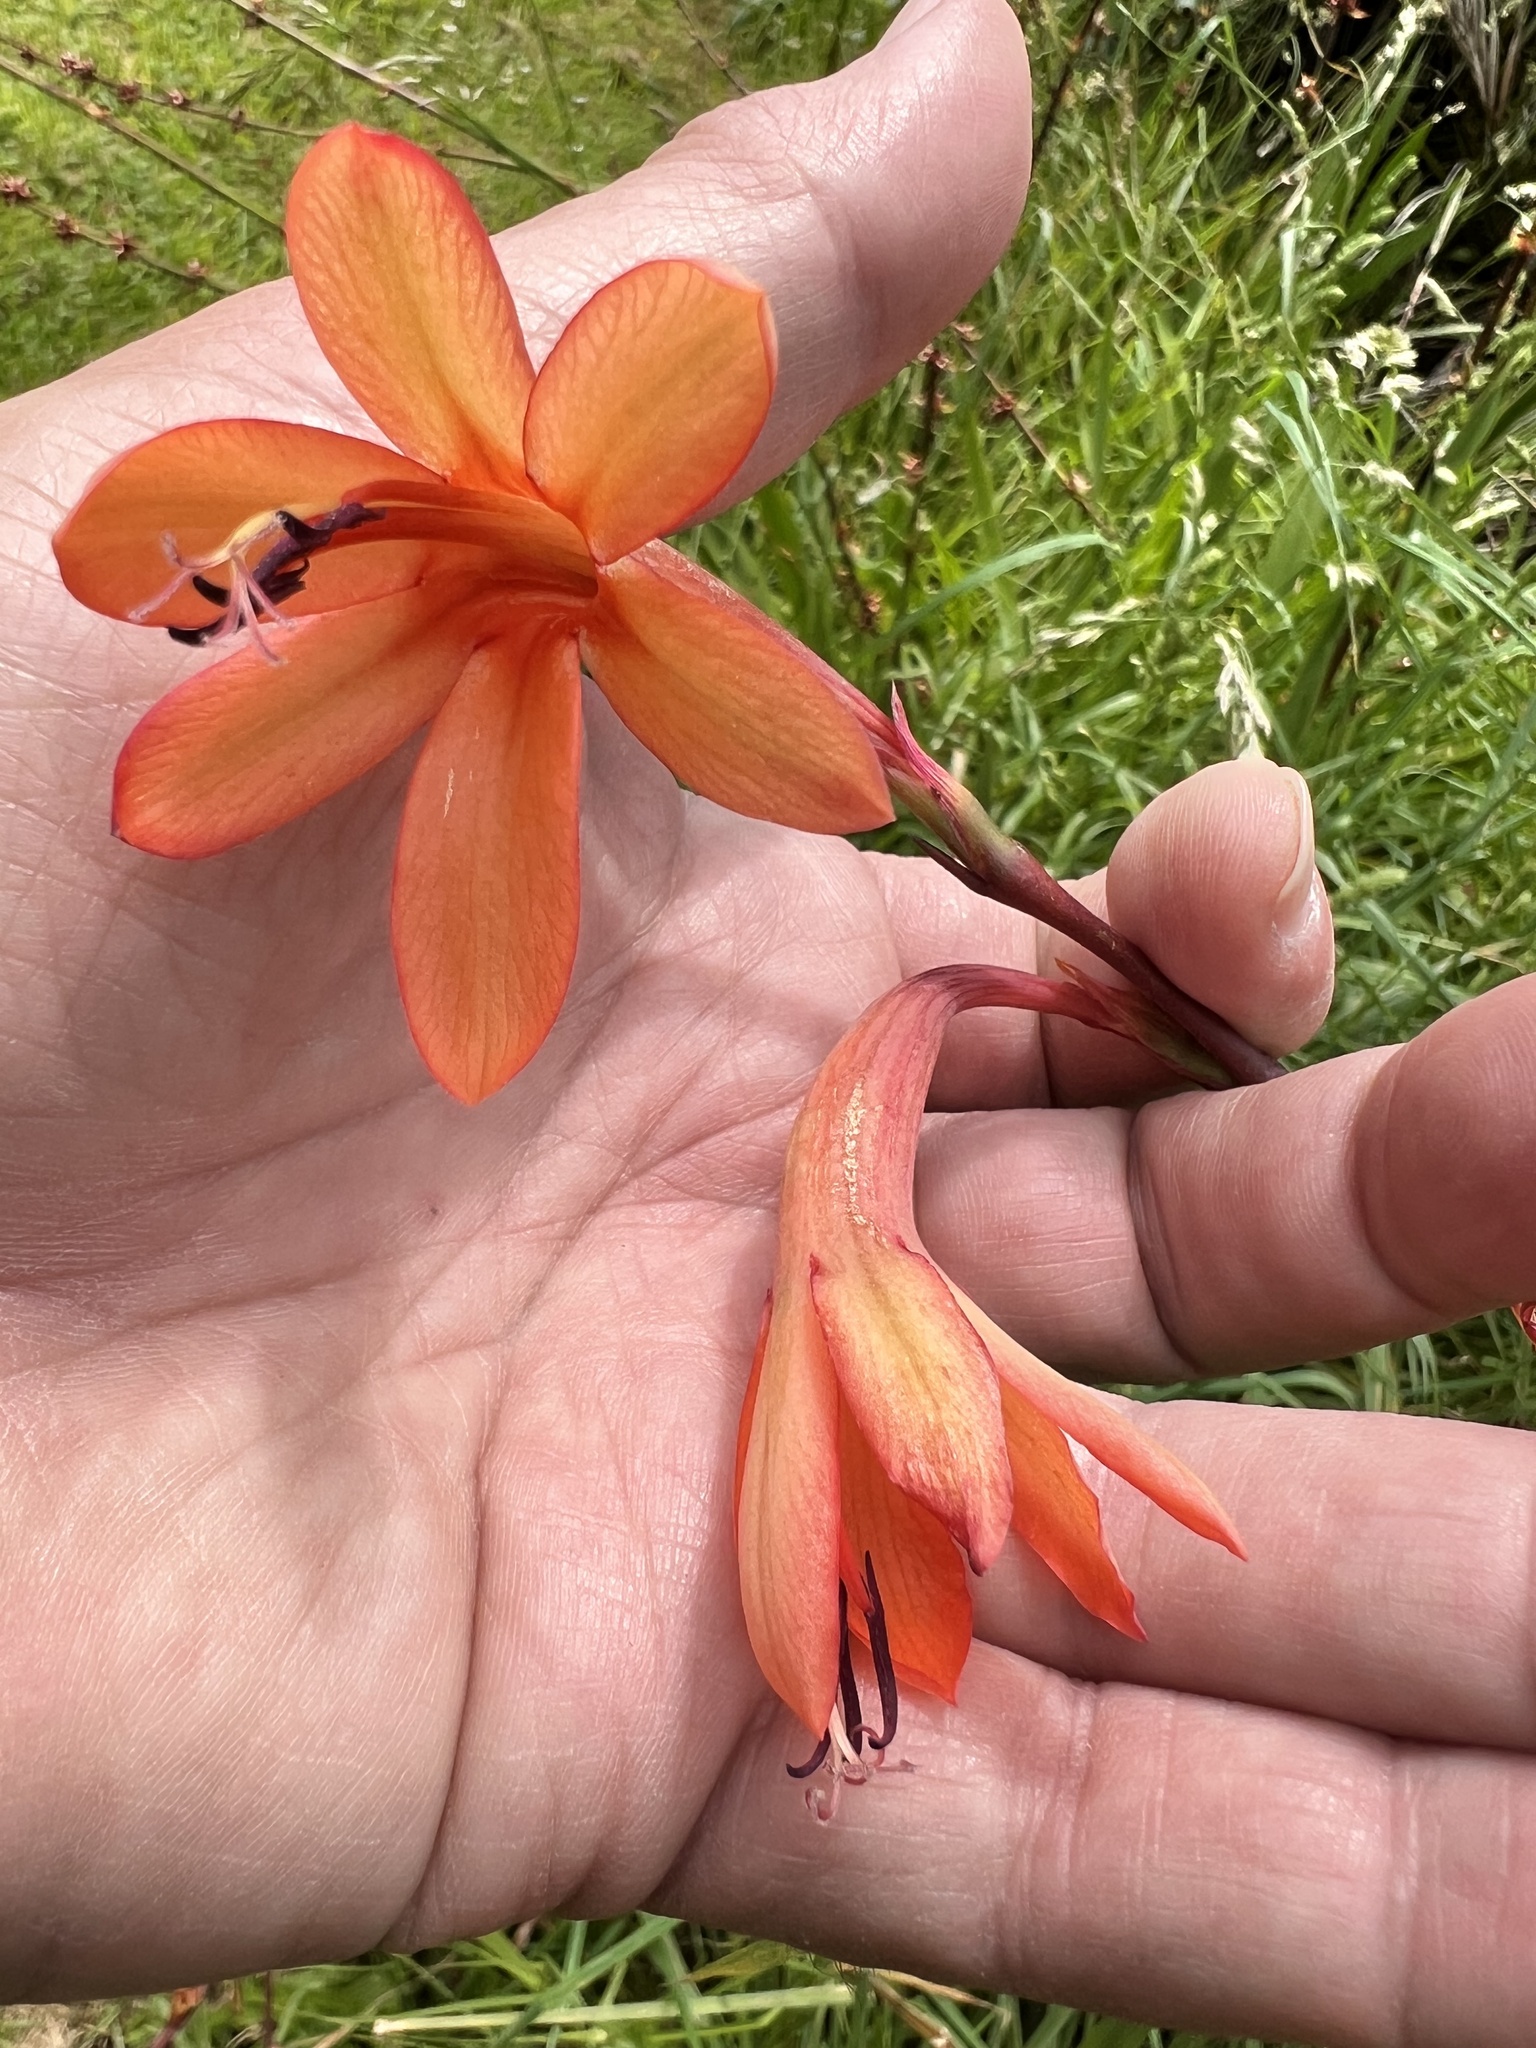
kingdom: Plantae
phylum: Tracheophyta
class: Liliopsida
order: Asparagales
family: Iridaceae
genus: Watsonia
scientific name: Watsonia meriana
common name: Bulbil bugle-lily
